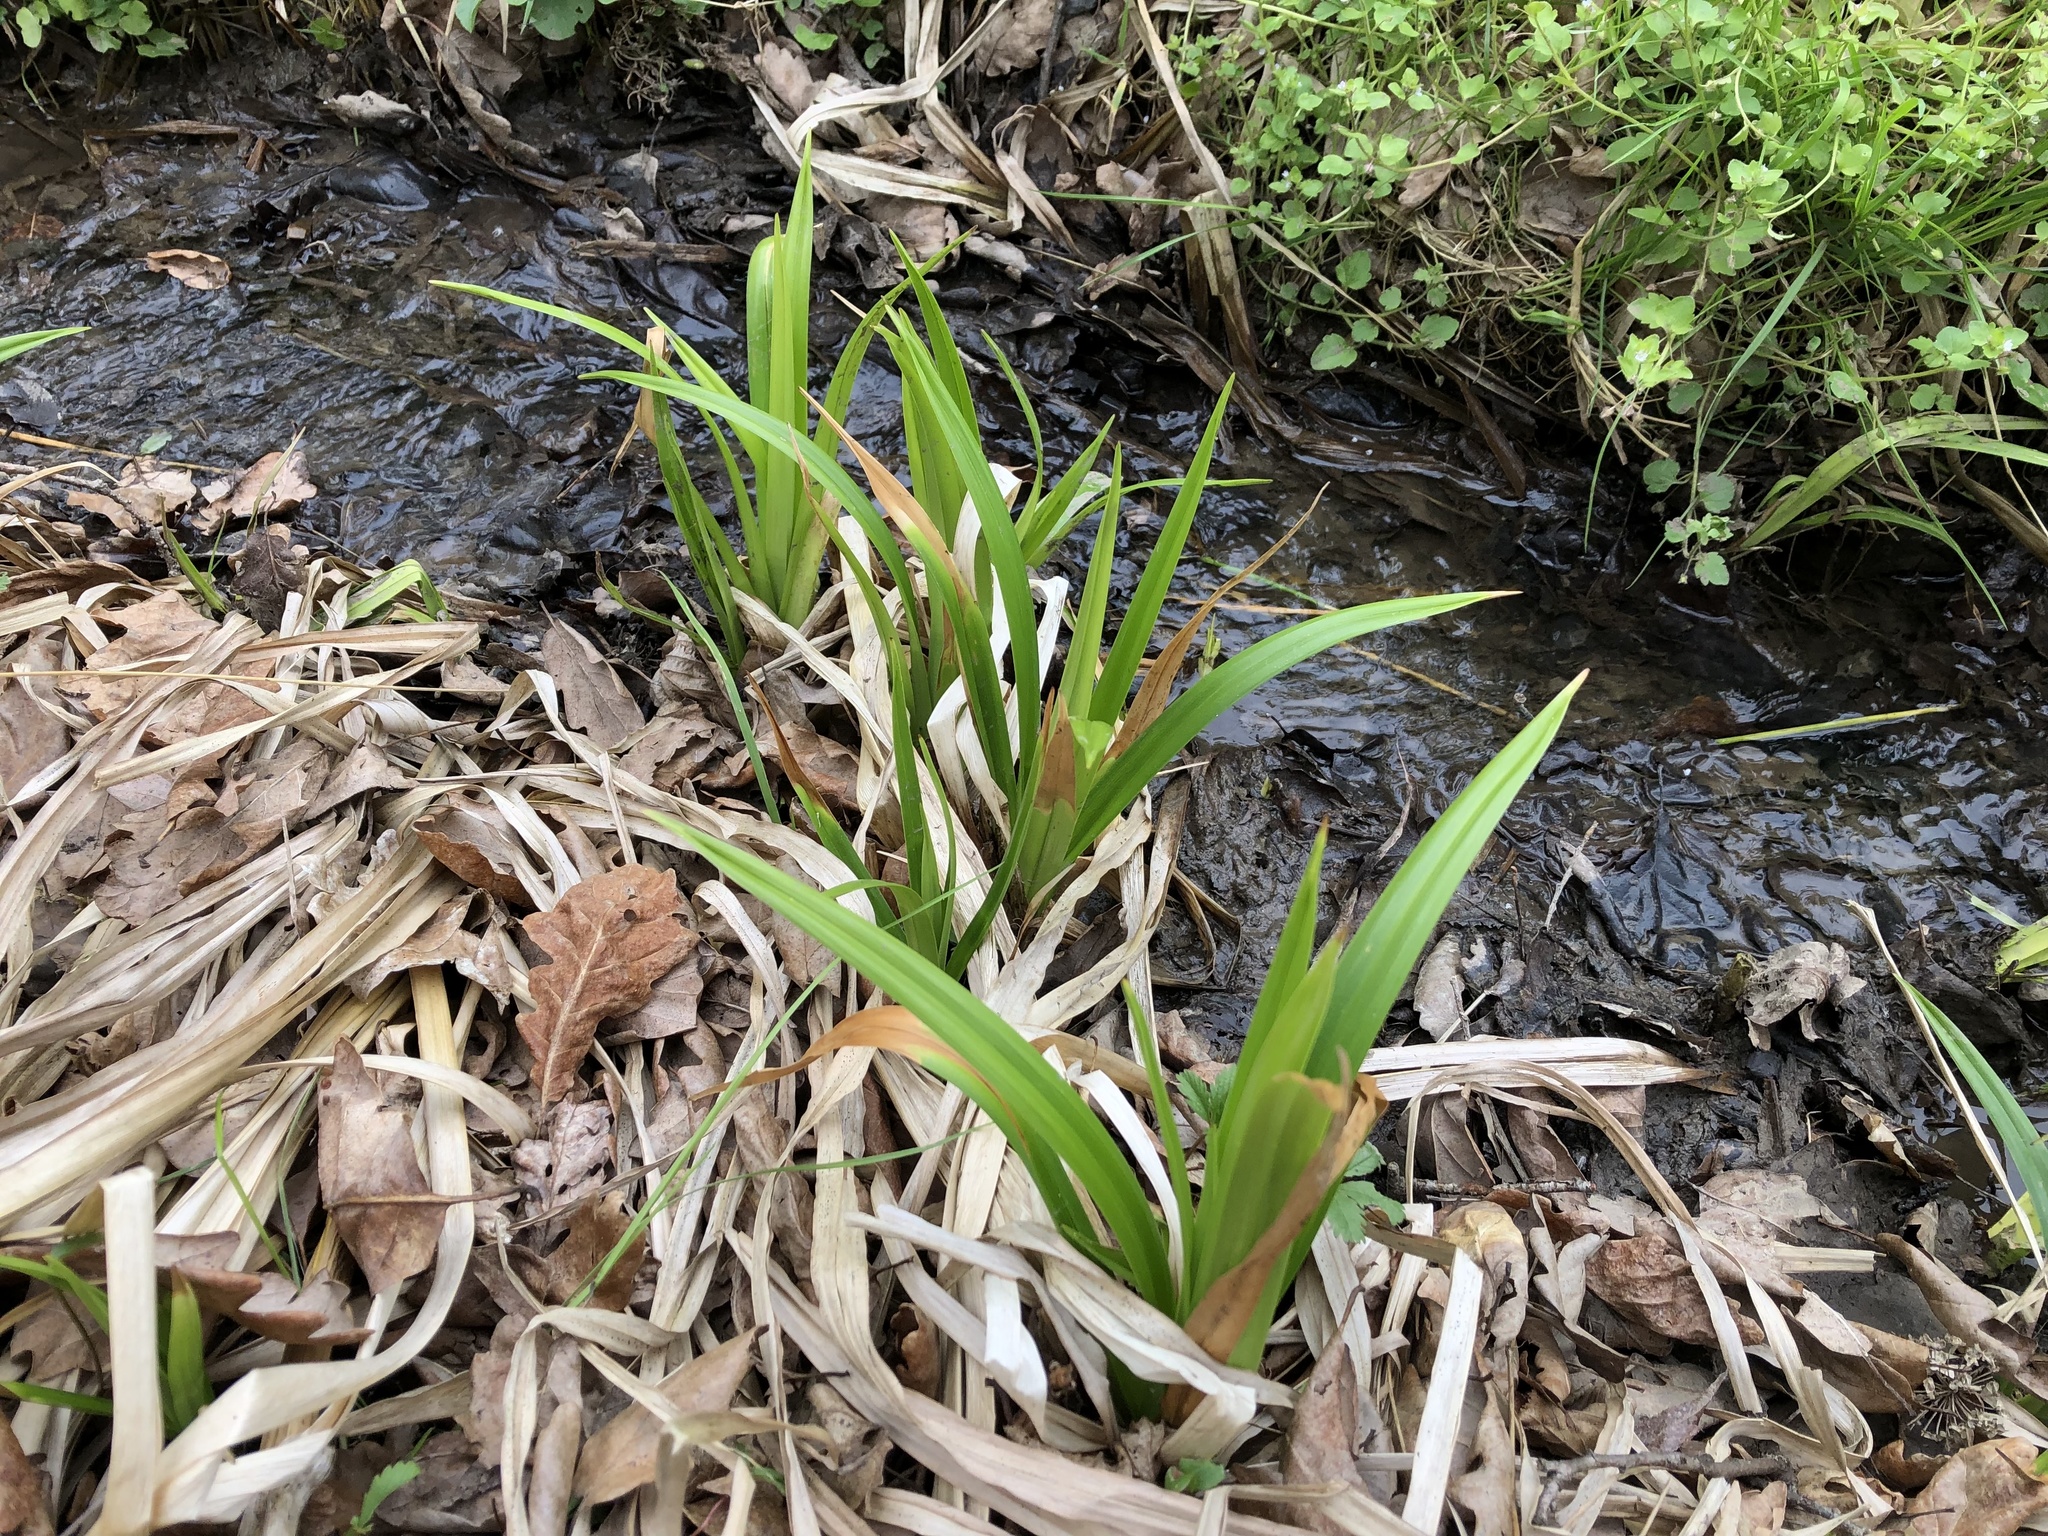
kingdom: Plantae
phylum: Tracheophyta
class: Liliopsida
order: Poales
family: Cyperaceae
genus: Scirpus
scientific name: Scirpus sylvaticus
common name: Wood club-rush
